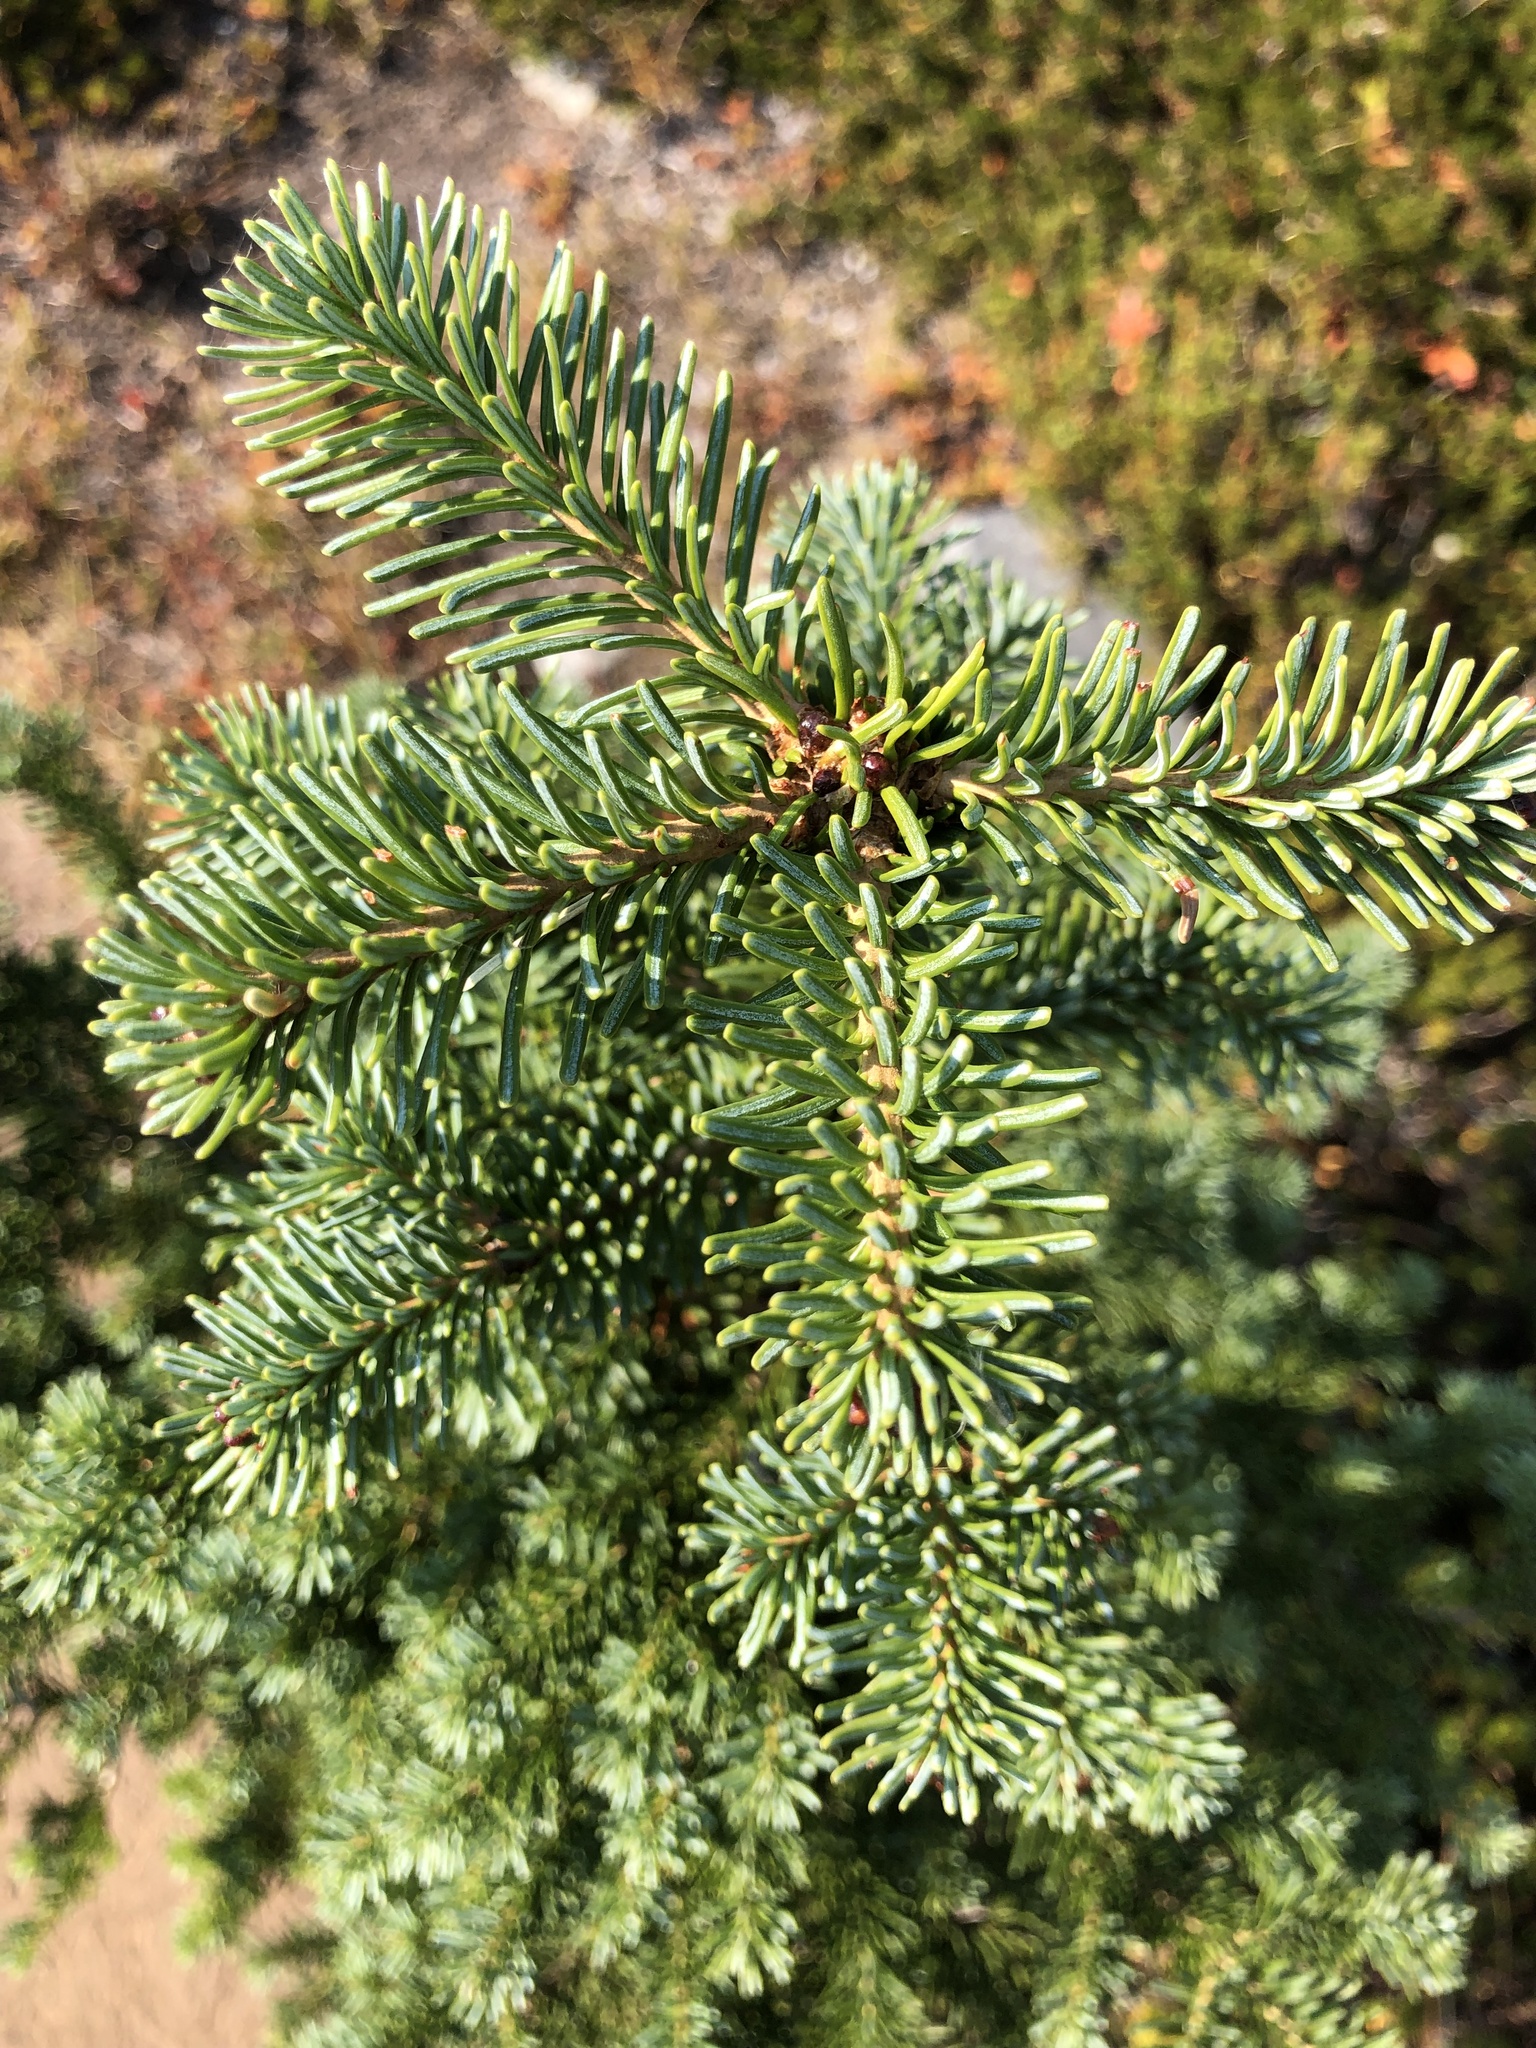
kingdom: Plantae
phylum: Tracheophyta
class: Pinopsida
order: Pinales
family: Pinaceae
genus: Abies
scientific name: Abies lasiocarpa
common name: Subalpine fir
